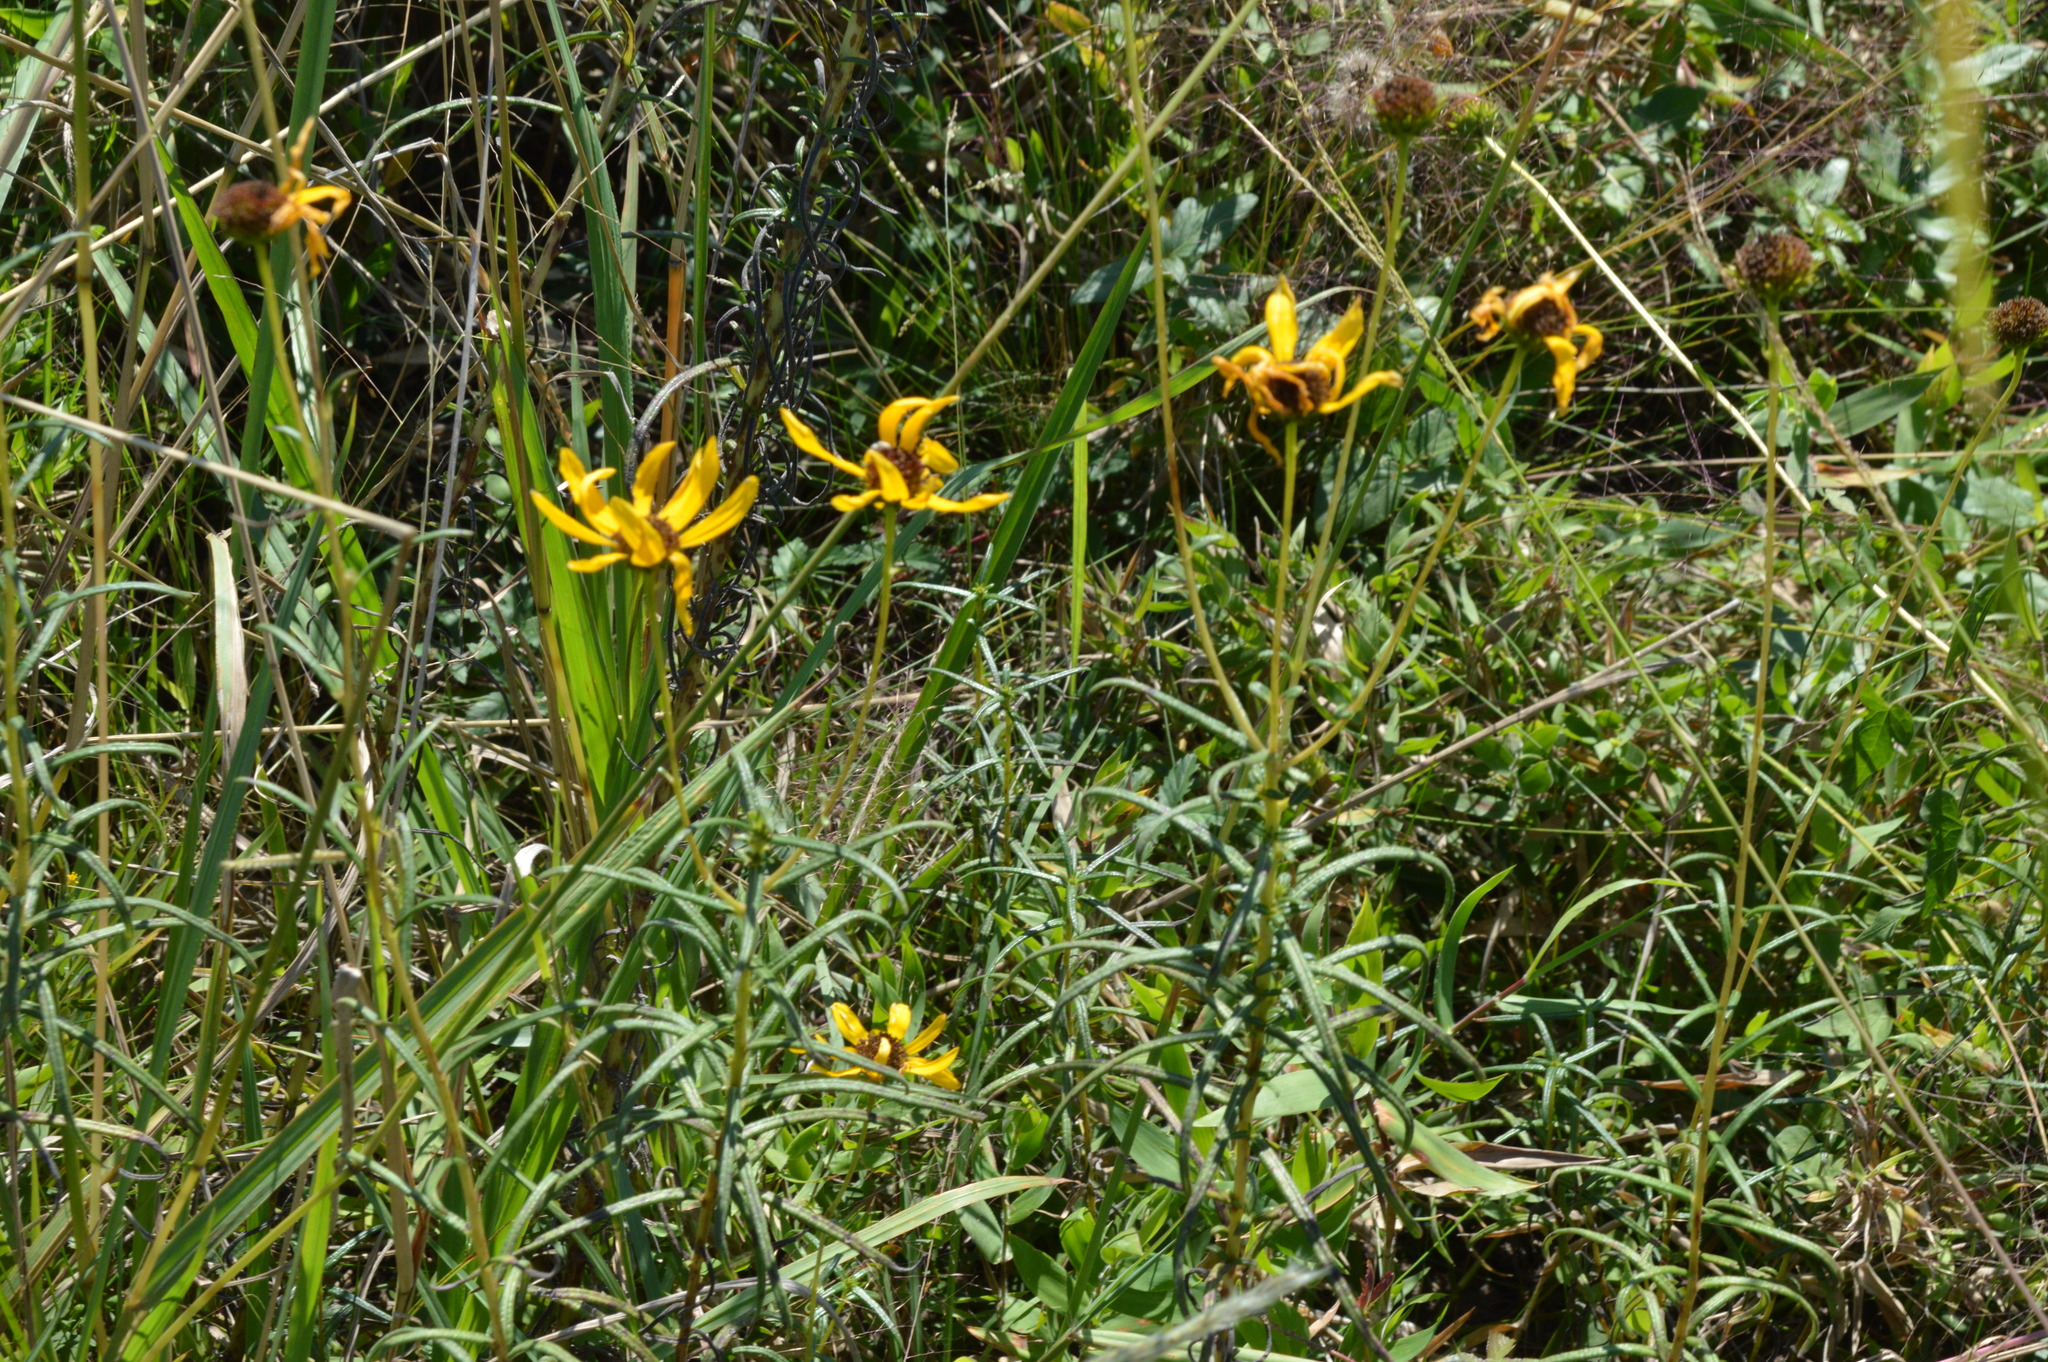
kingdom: Plantae
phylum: Tracheophyta
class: Magnoliopsida
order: Asterales
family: Asteraceae
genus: Helianthus
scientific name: Helianthus angustifolius
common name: Swamp sunflower
